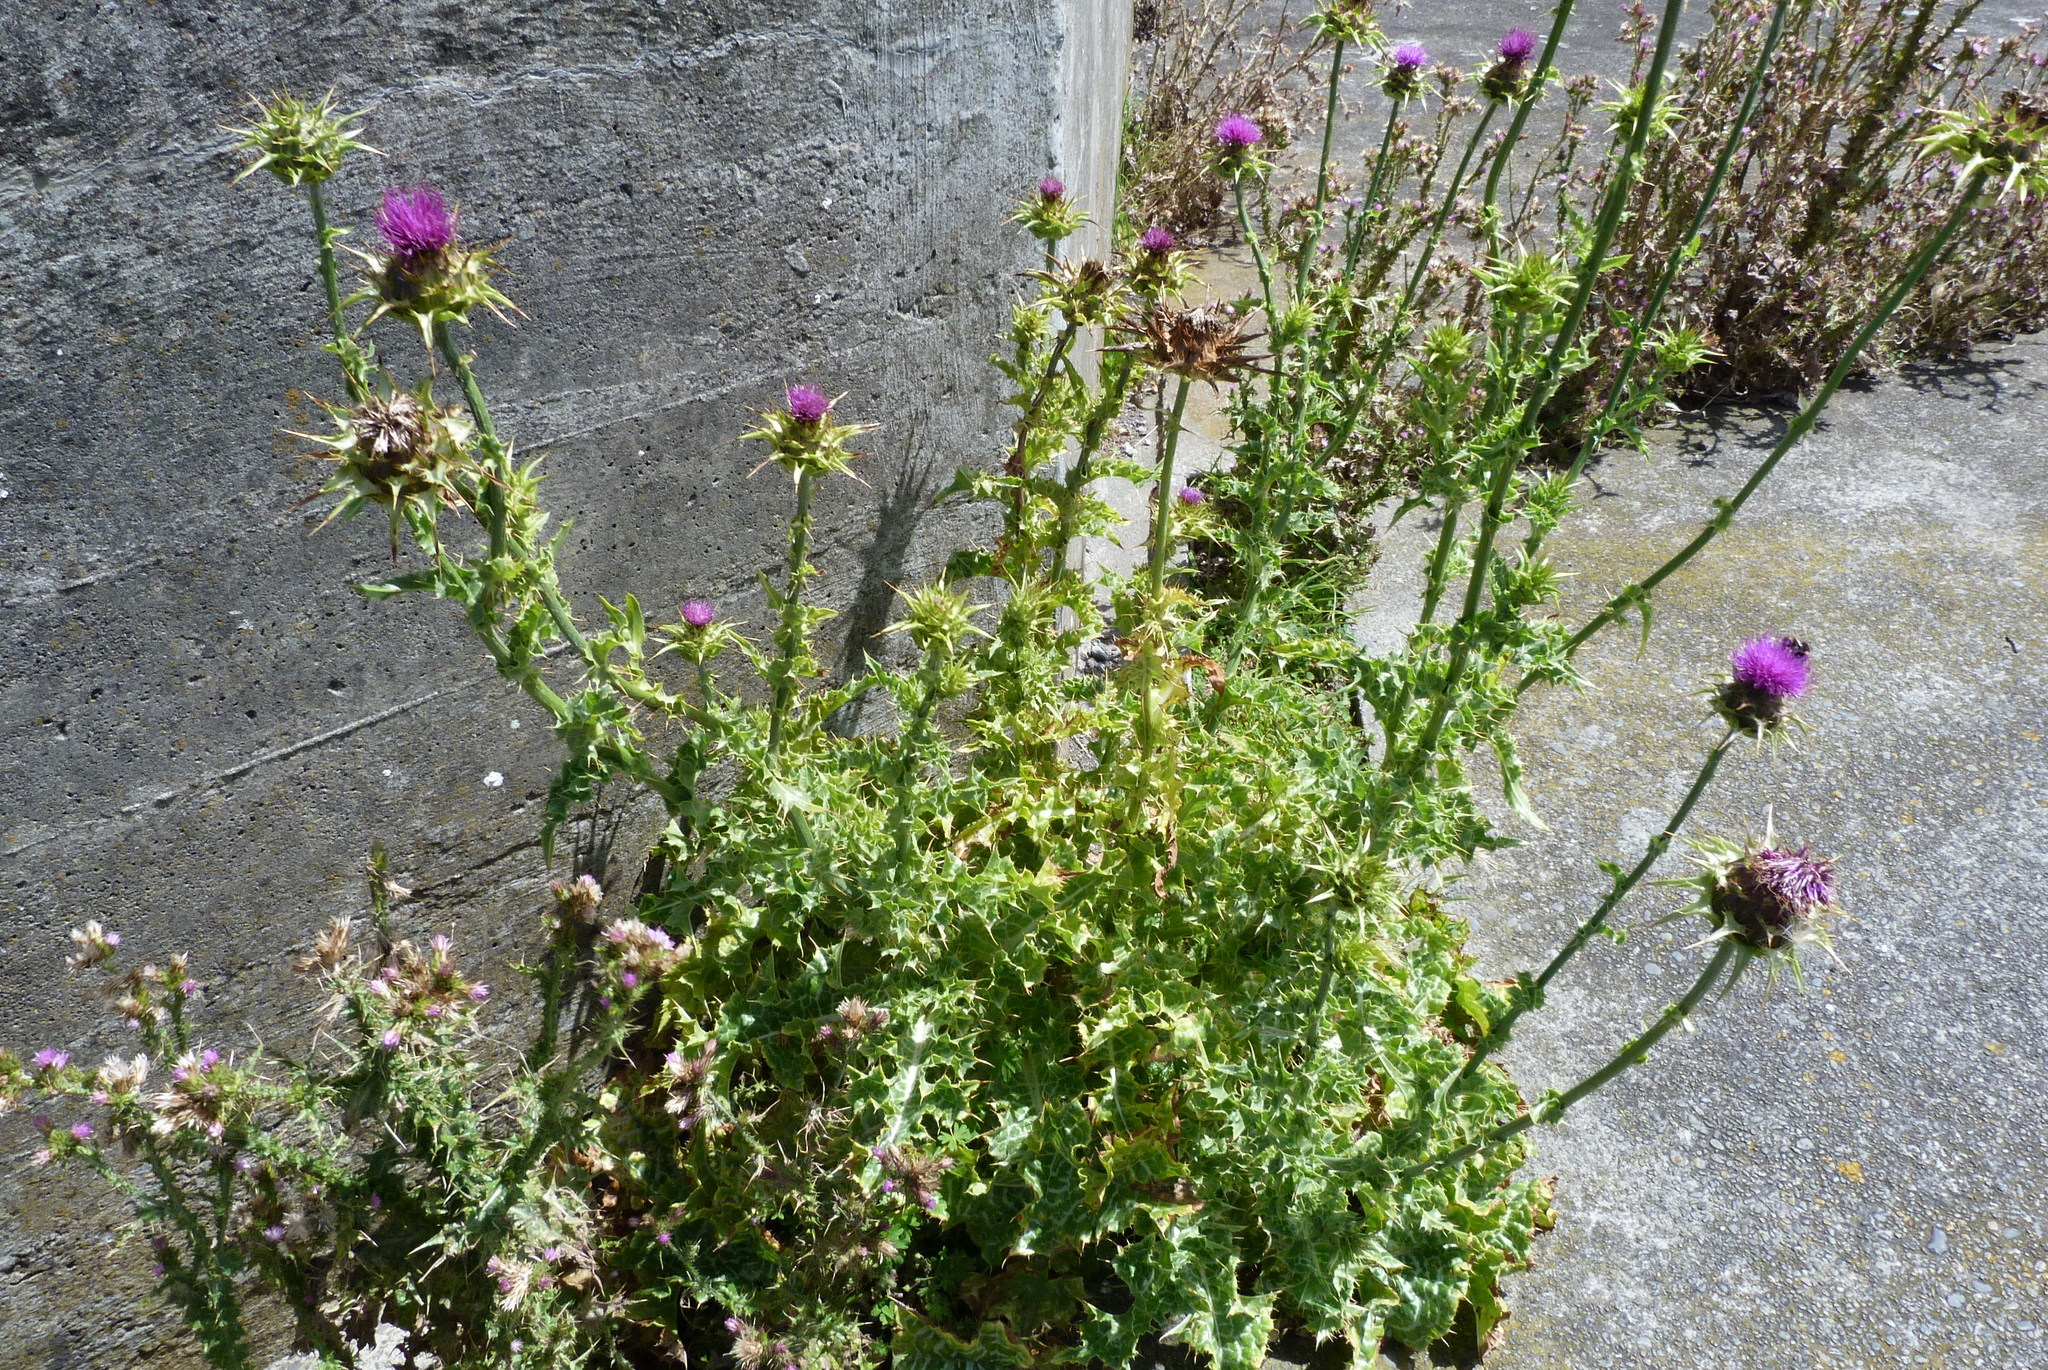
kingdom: Plantae
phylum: Tracheophyta
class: Magnoliopsida
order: Asterales
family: Asteraceae
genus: Silybum
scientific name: Silybum marianum
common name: Milk thistle
